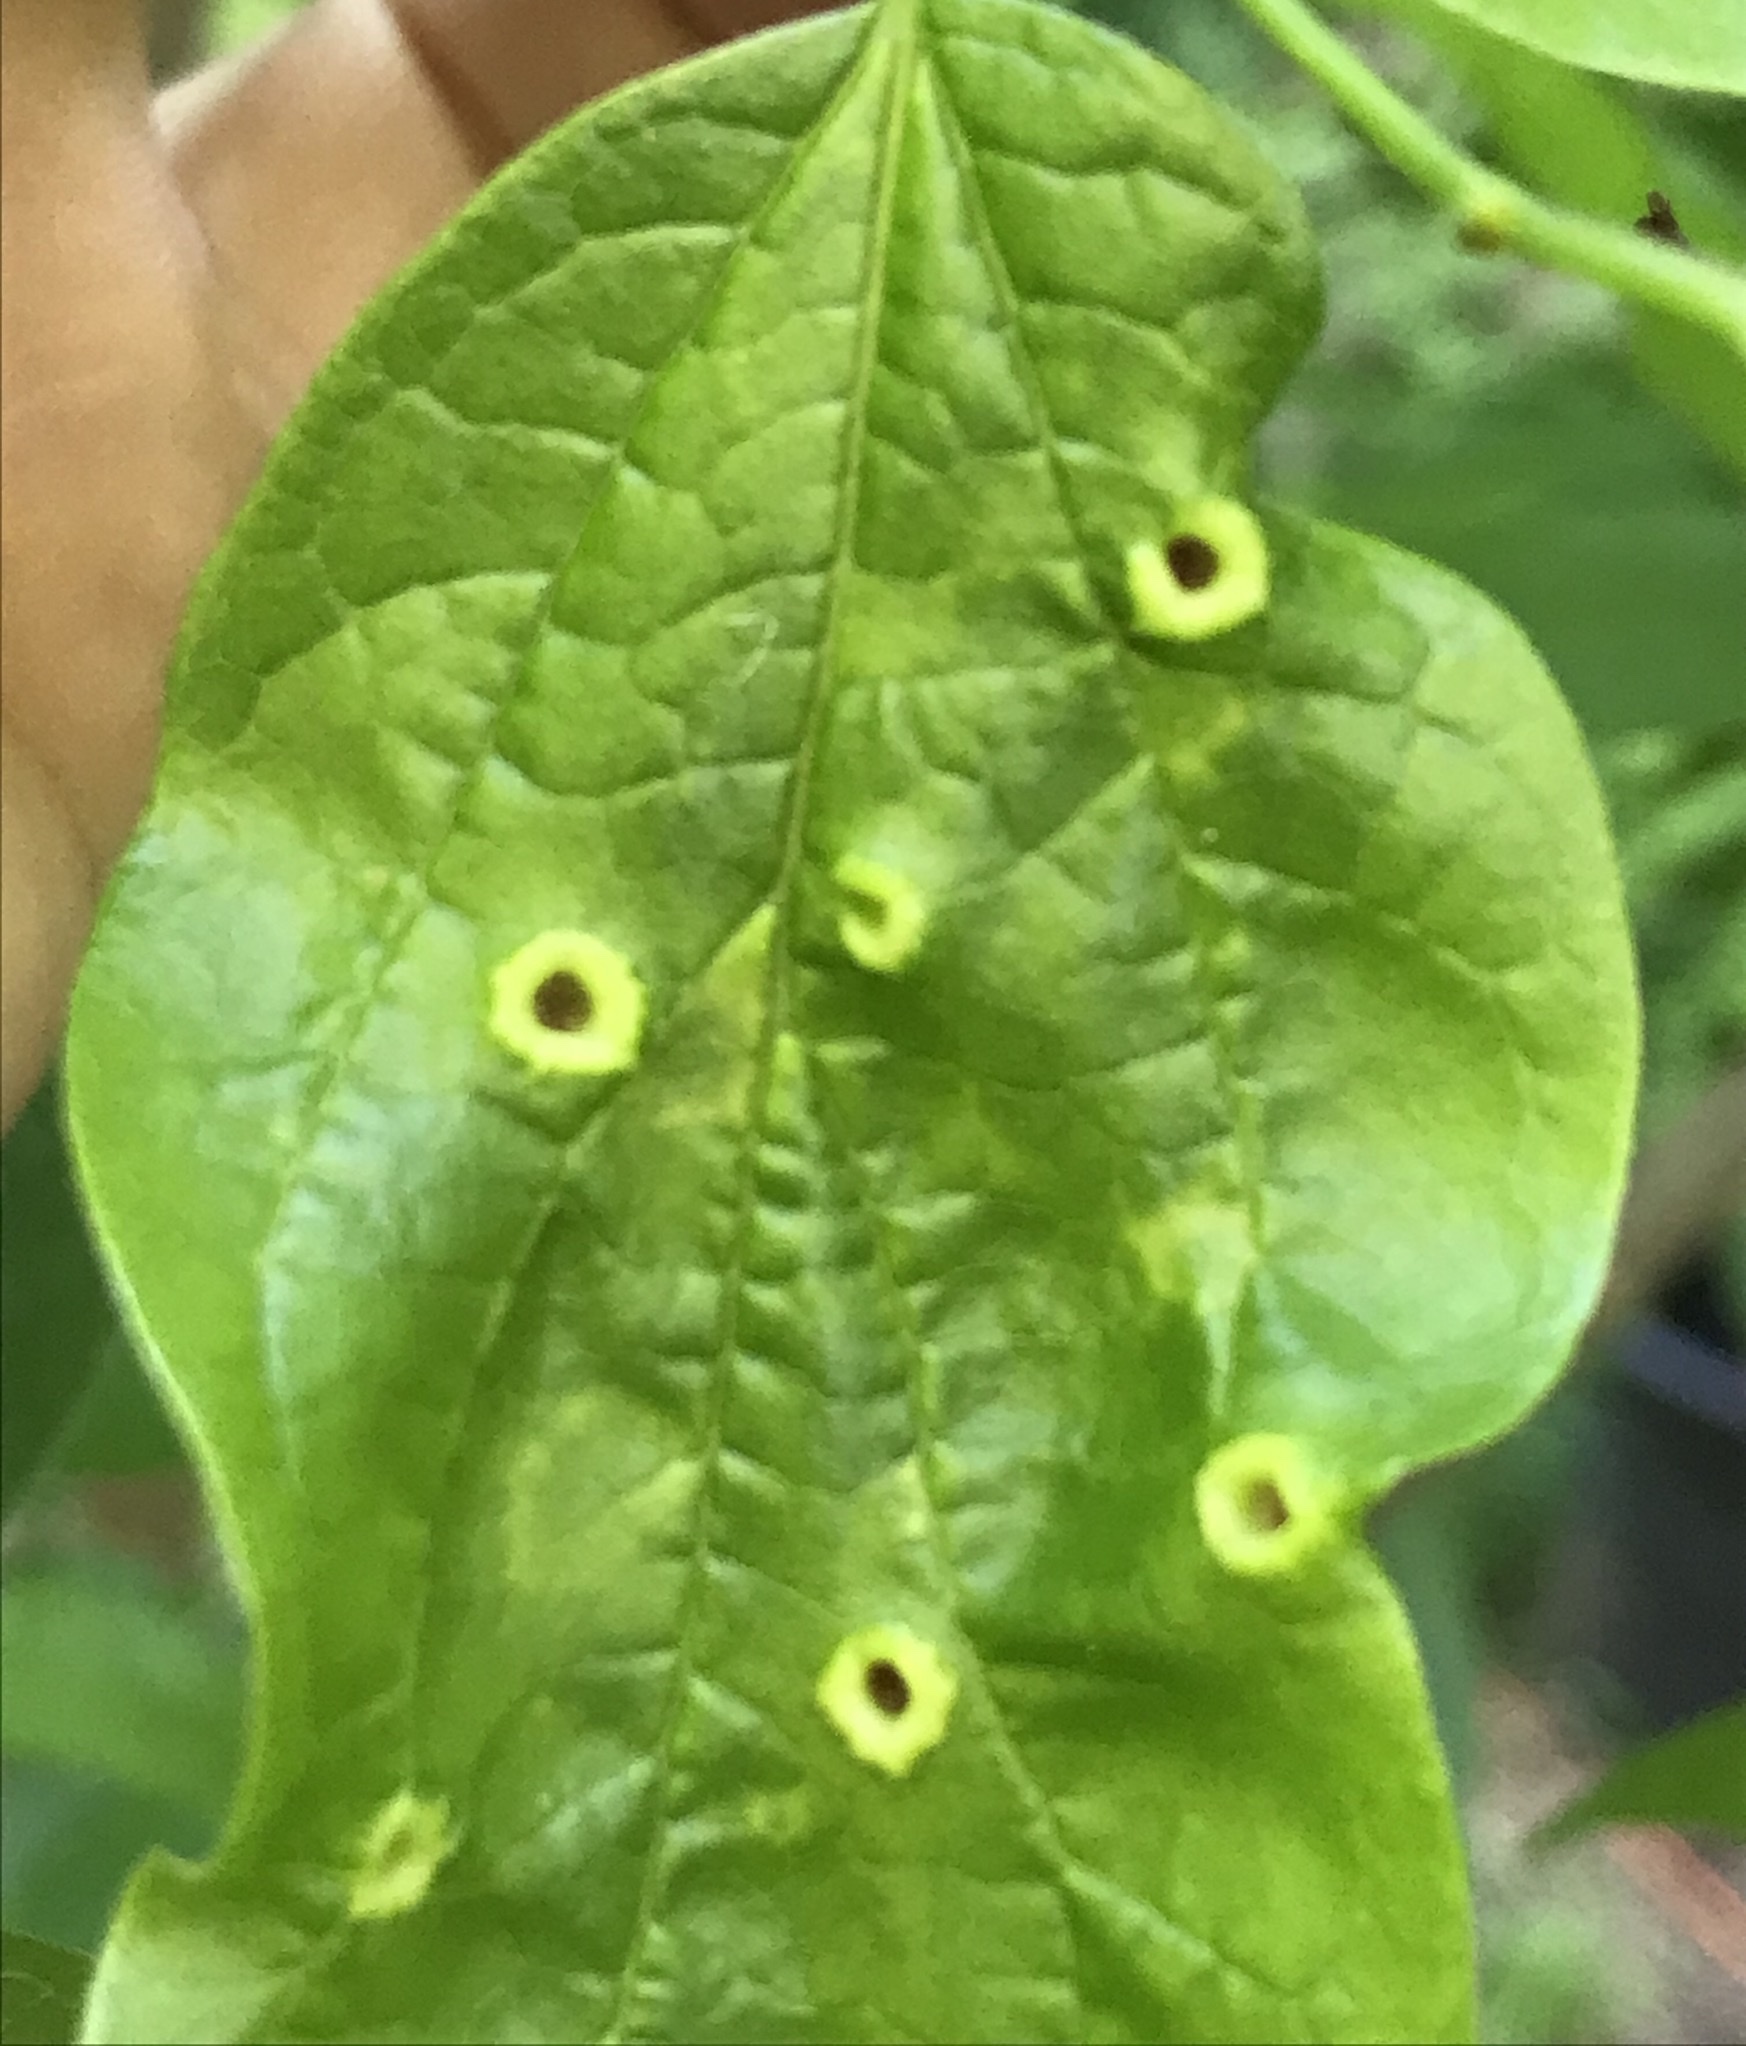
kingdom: Animalia
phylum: Arthropoda
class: Insecta
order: Hemiptera
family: Aphalaridae
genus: Pachypsylla
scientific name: Pachypsylla celtidismamma
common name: Hackberry nipplegall psyllid
